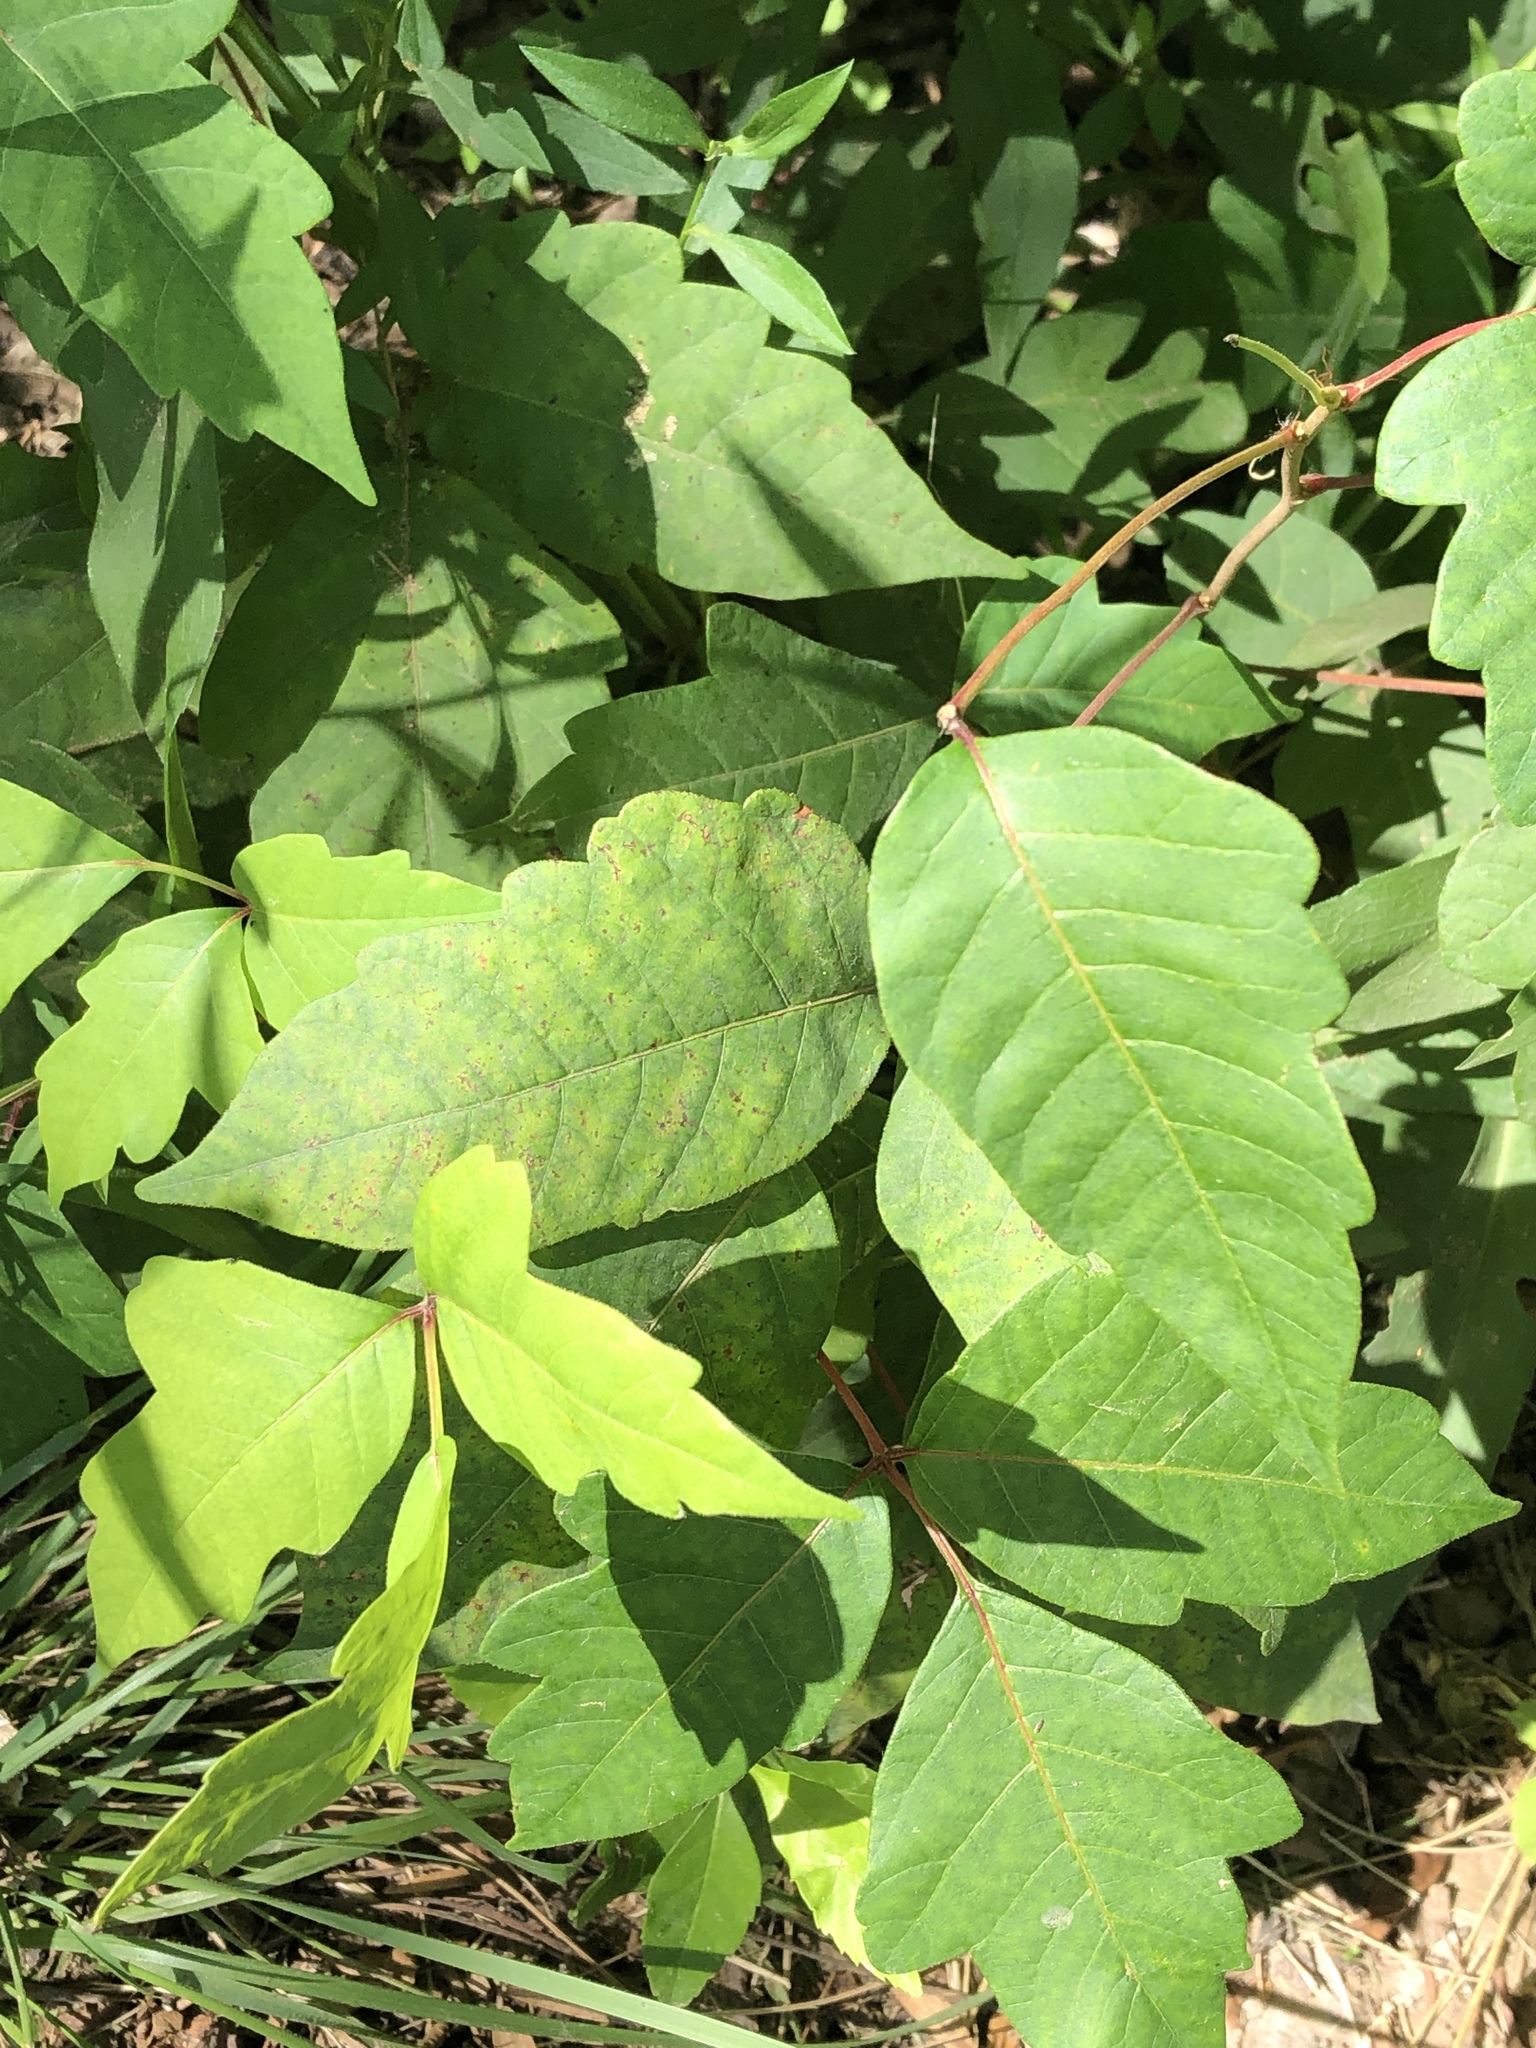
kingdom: Plantae
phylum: Tracheophyta
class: Magnoliopsida
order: Sapindales
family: Anacardiaceae
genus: Toxicodendron
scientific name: Toxicodendron radicans
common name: Poison ivy
